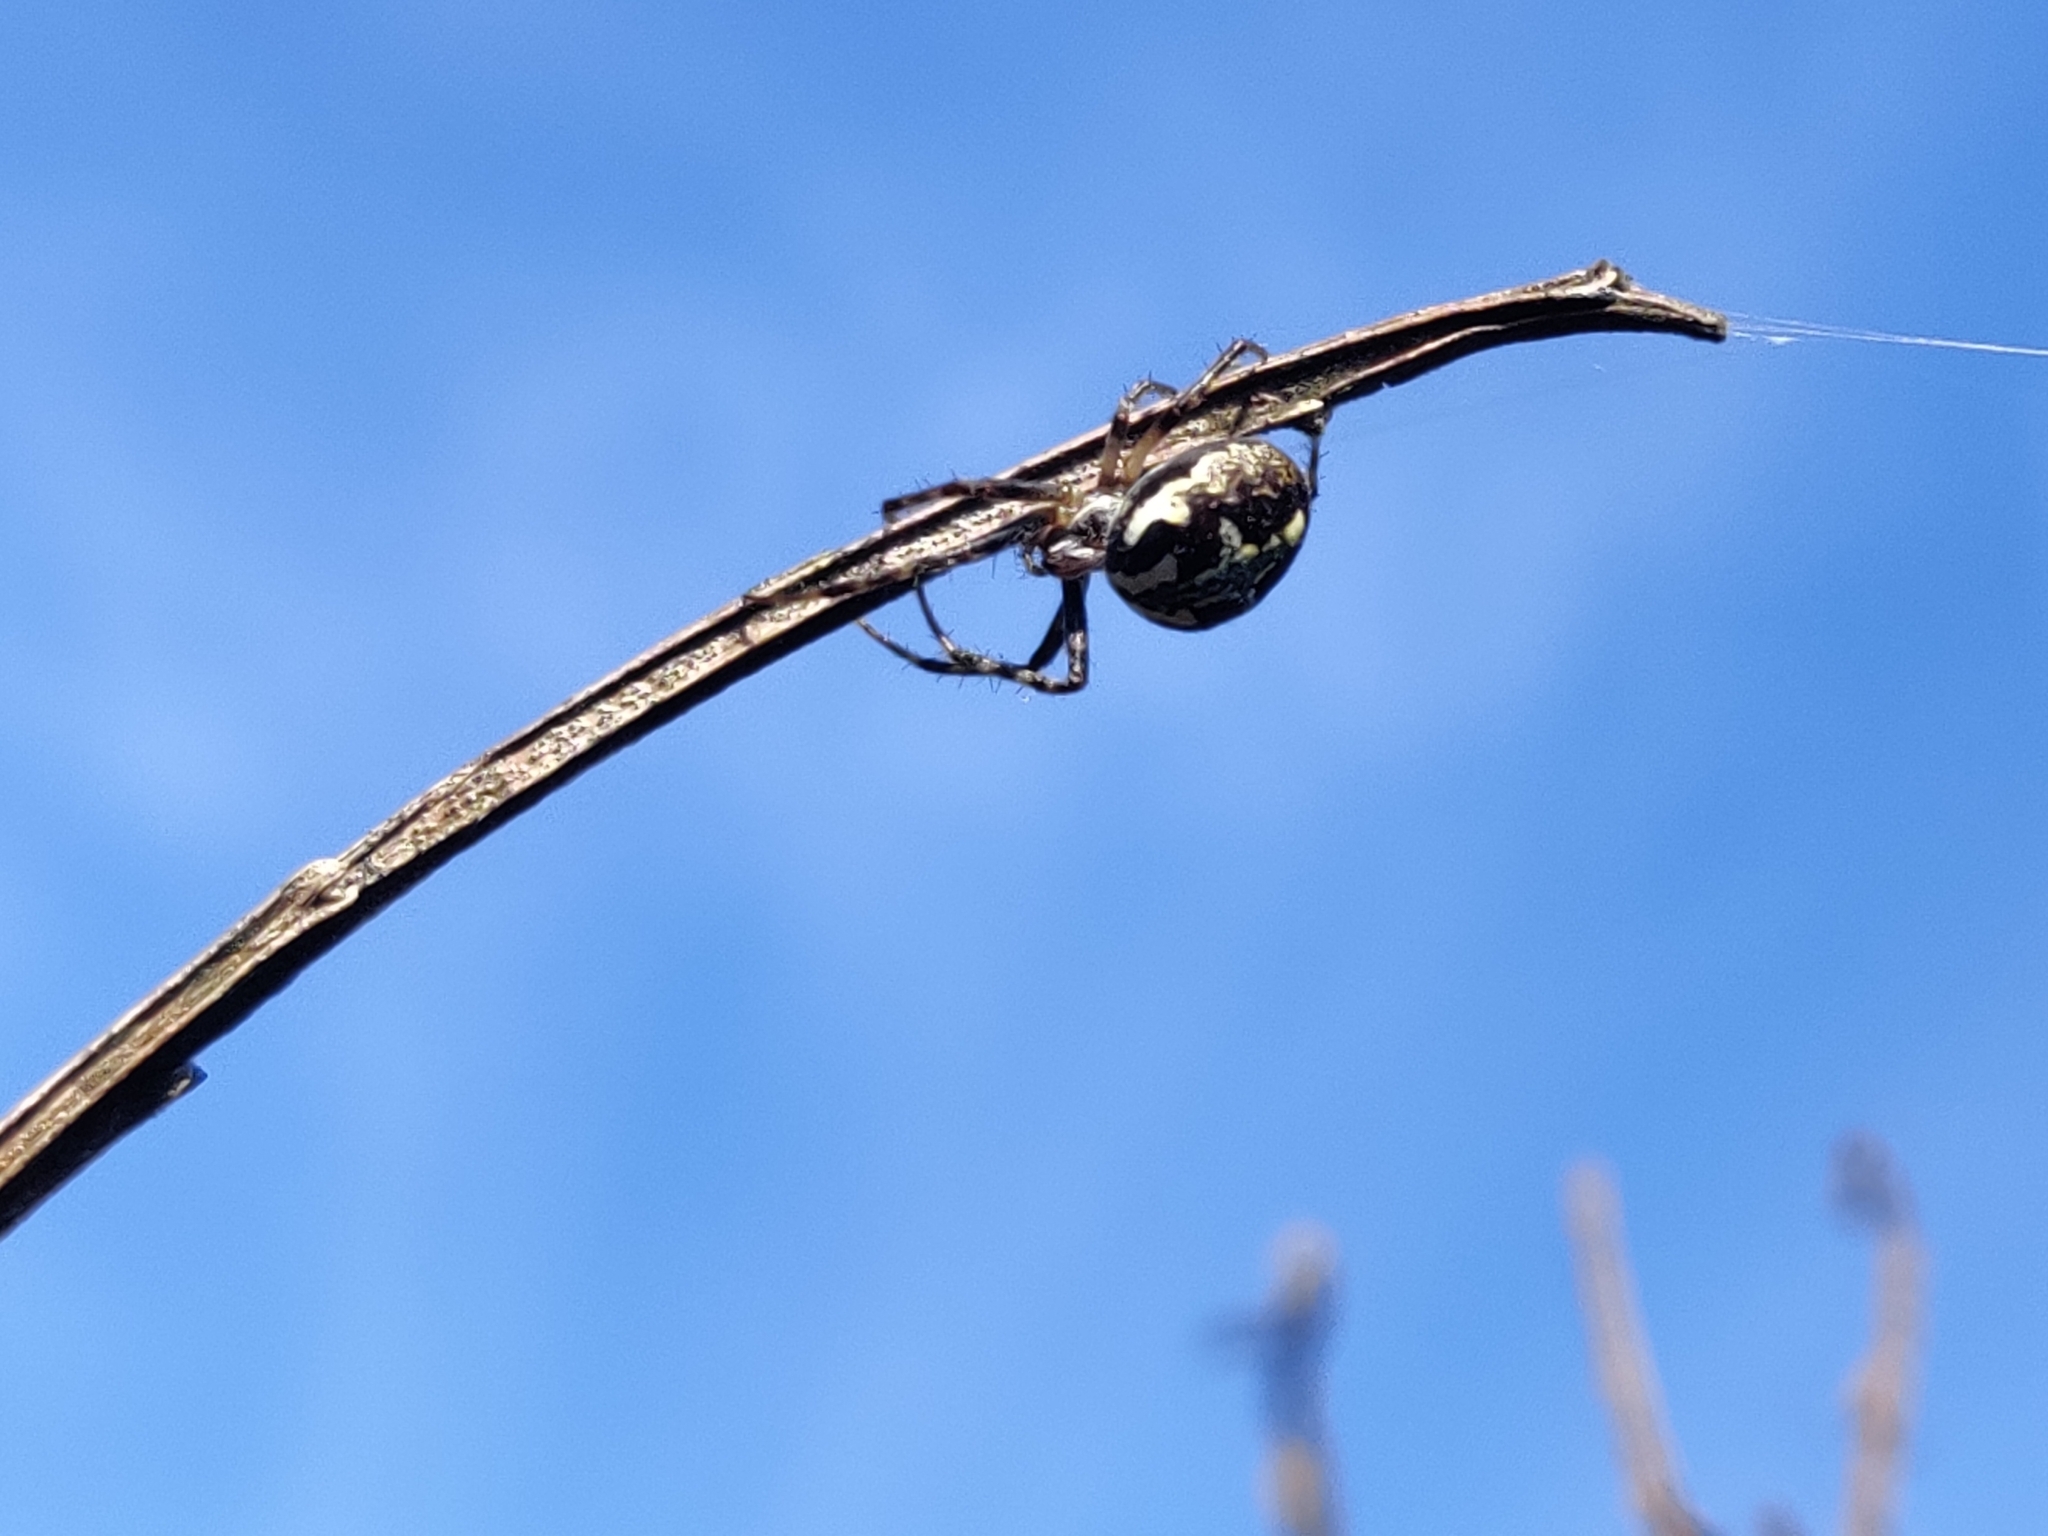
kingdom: Animalia
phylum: Arthropoda
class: Arachnida
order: Araneae
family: Araneidae
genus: Novaranea
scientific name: Novaranea queribunda
